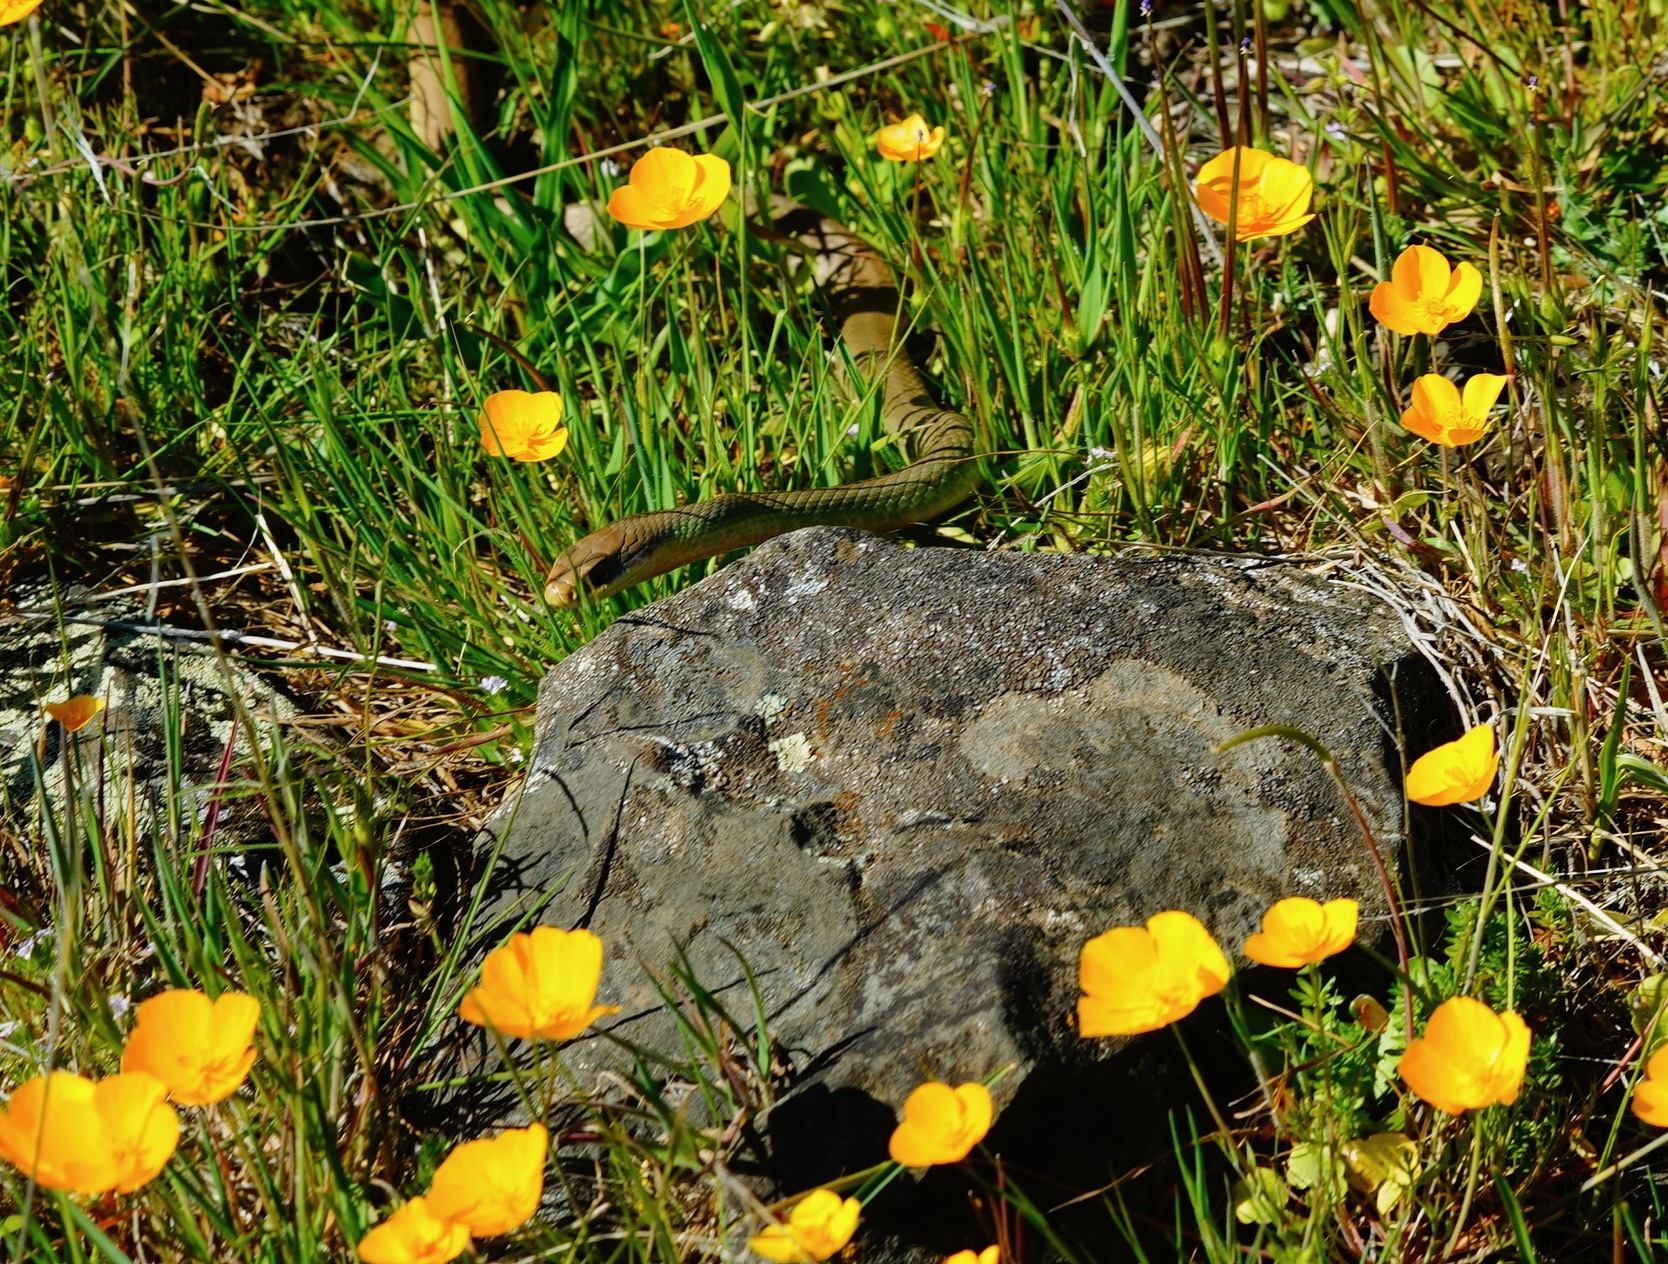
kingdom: Animalia
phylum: Chordata
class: Squamata
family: Colubridae
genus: Coluber
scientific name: Coluber constrictor
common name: Eastern racer
